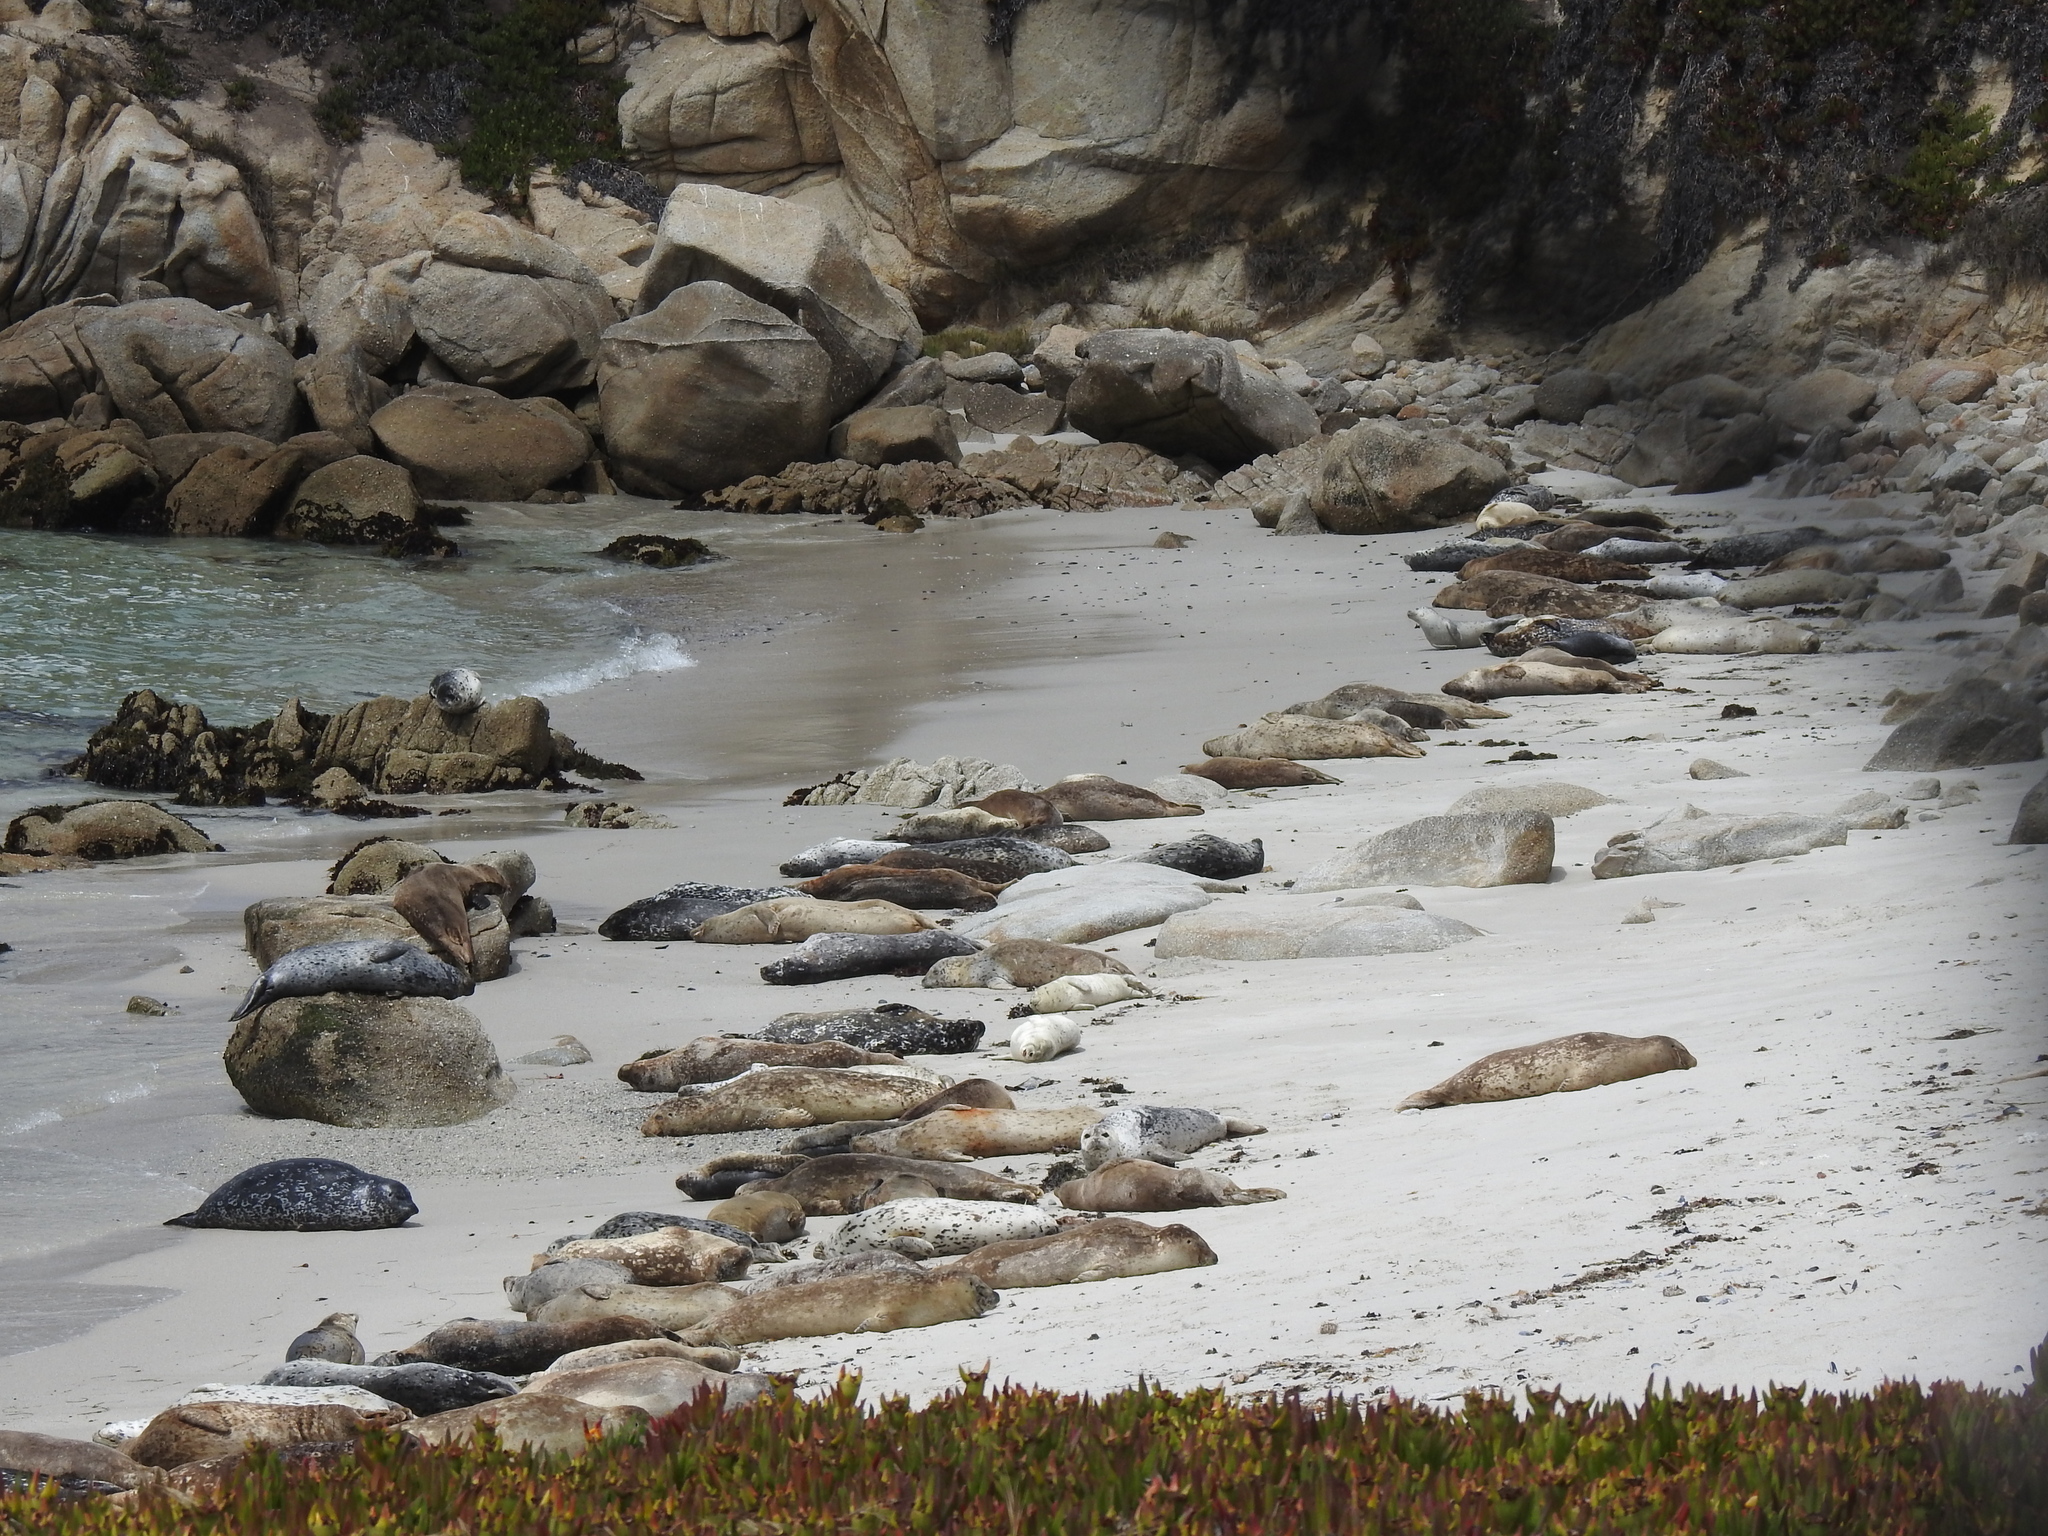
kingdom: Animalia
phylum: Chordata
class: Mammalia
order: Carnivora
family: Phocidae
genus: Phoca
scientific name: Phoca vitulina
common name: Harbor seal
